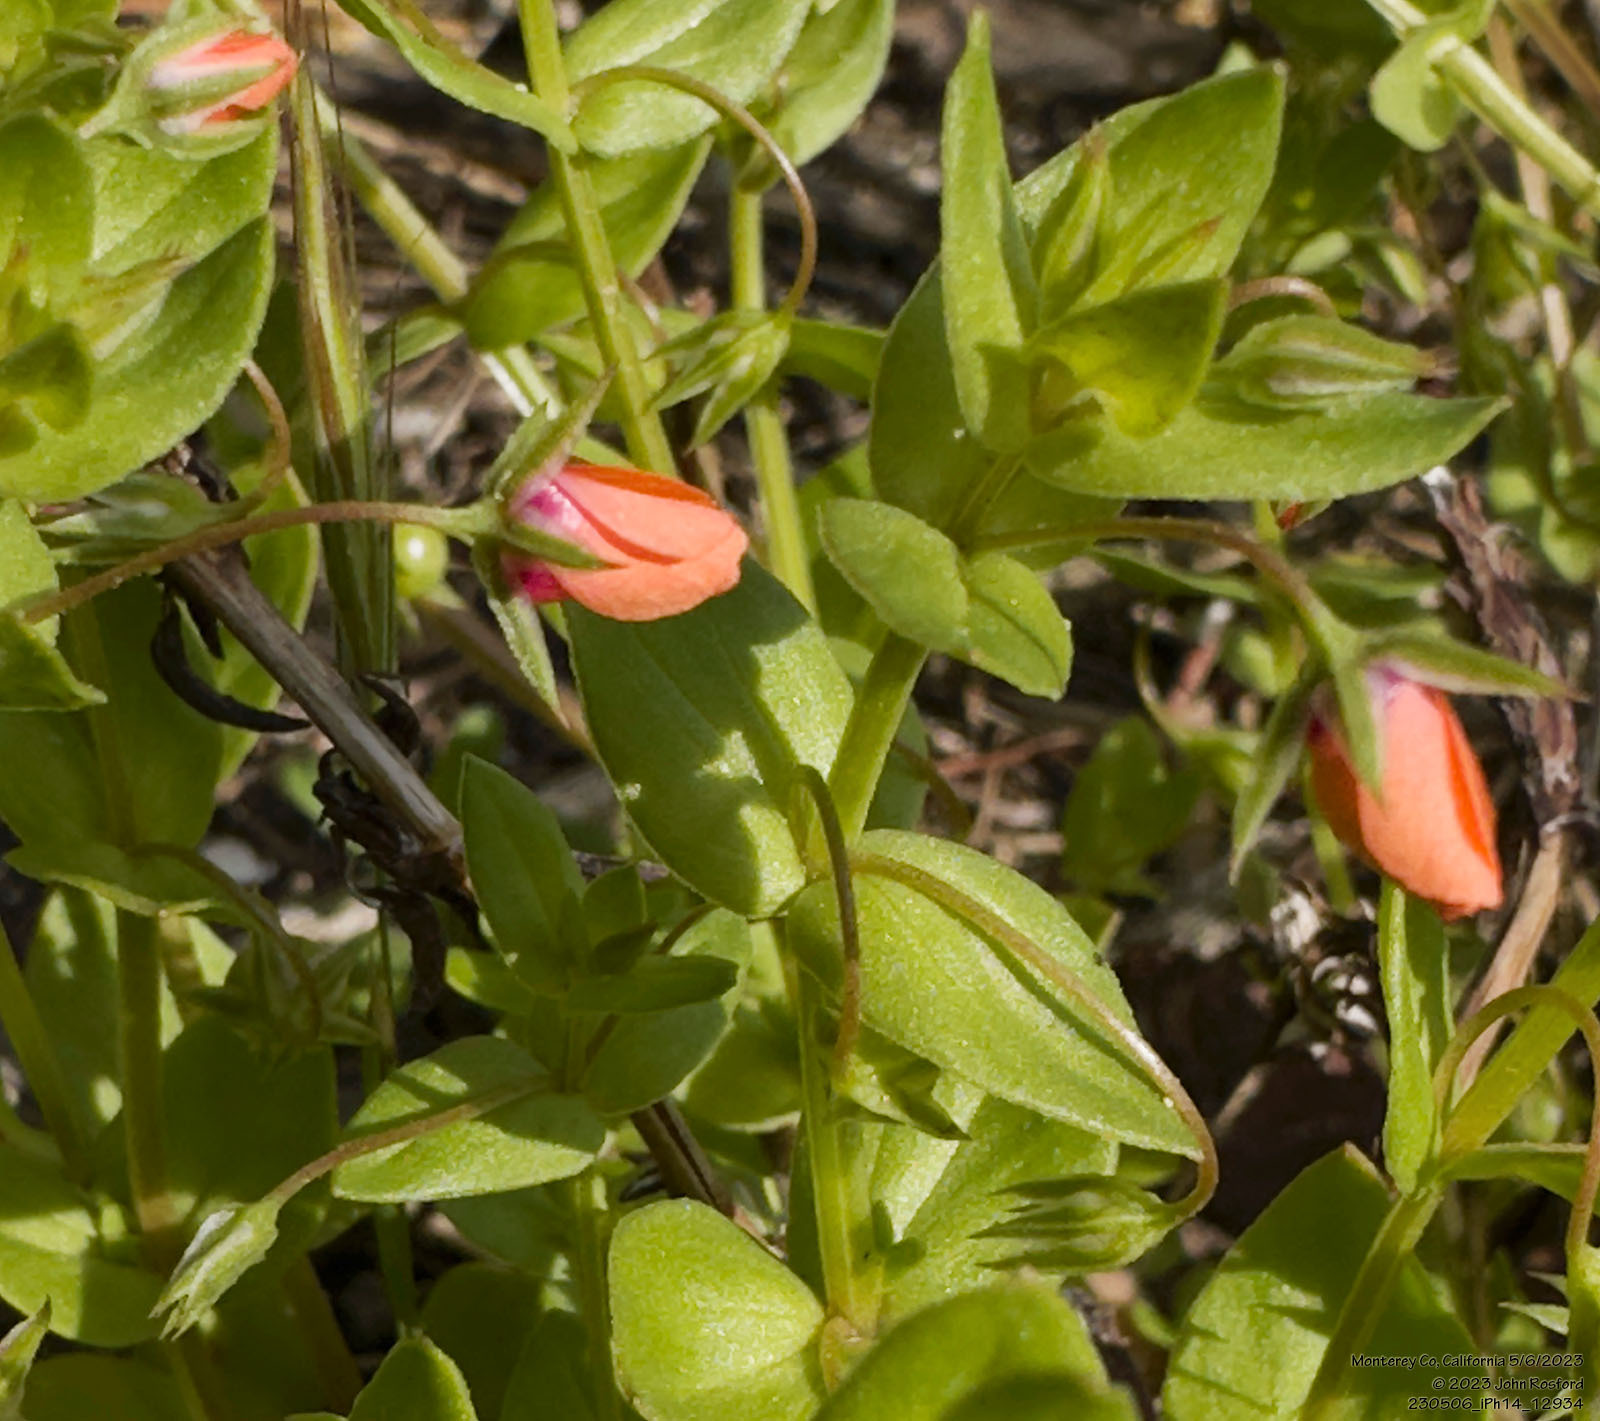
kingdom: Plantae
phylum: Tracheophyta
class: Magnoliopsida
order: Ericales
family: Primulaceae
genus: Lysimachia
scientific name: Lysimachia arvensis
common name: Scarlet pimpernel
